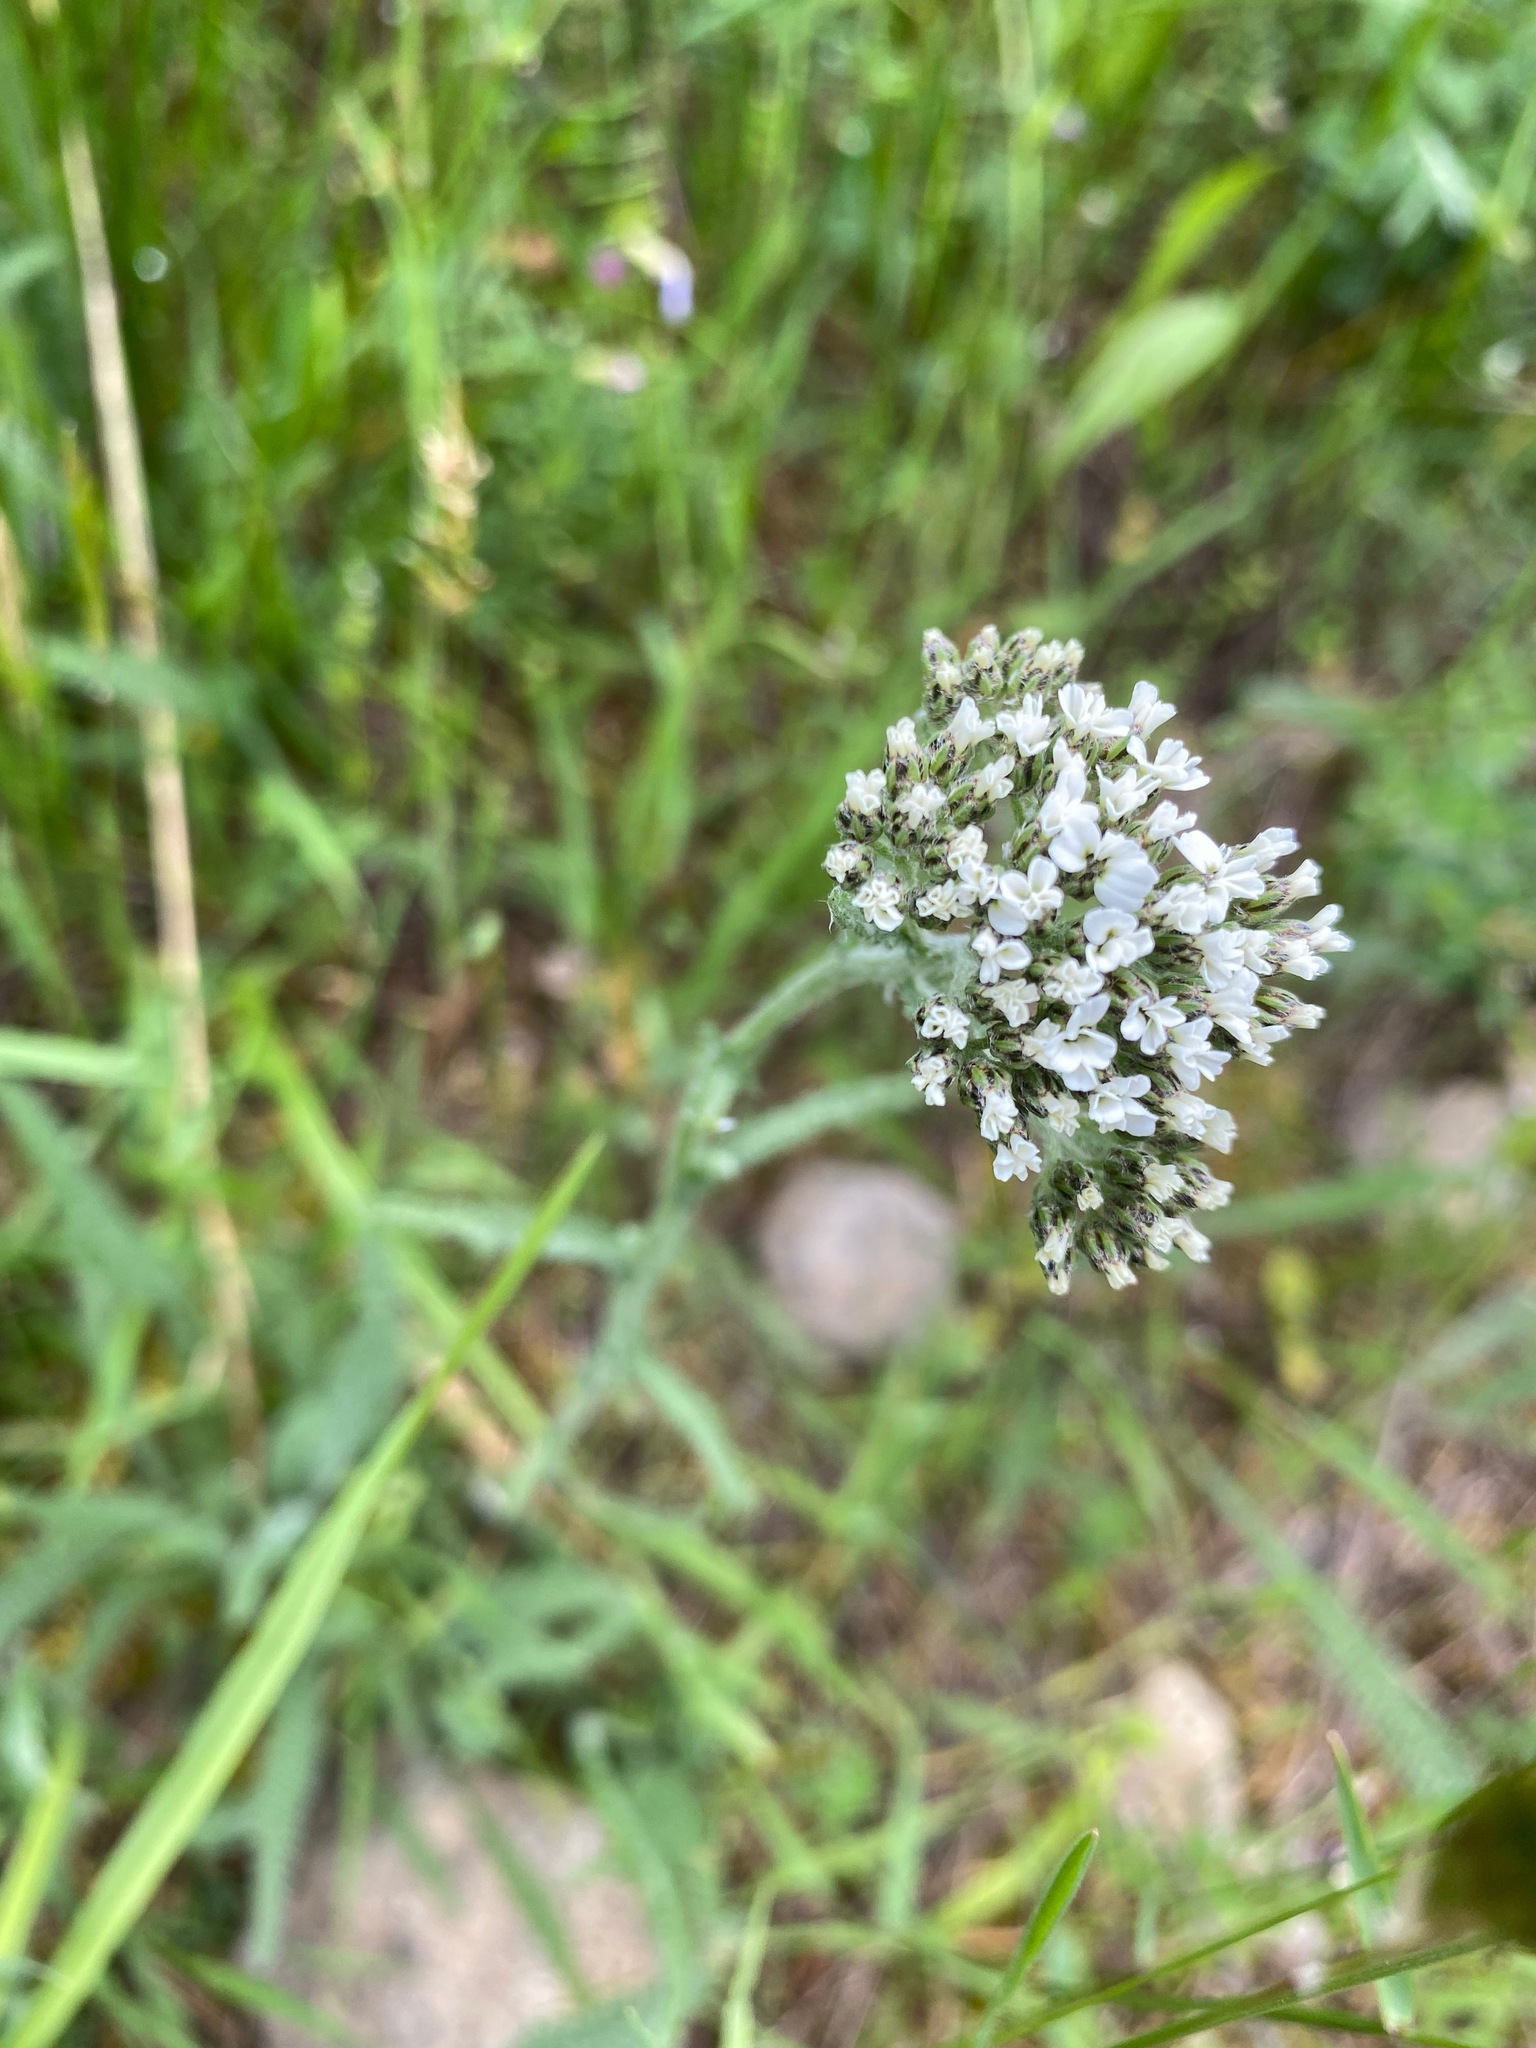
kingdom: Plantae
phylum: Tracheophyta
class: Magnoliopsida
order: Asterales
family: Asteraceae
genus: Achillea
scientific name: Achillea millefolium
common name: Yarrow
